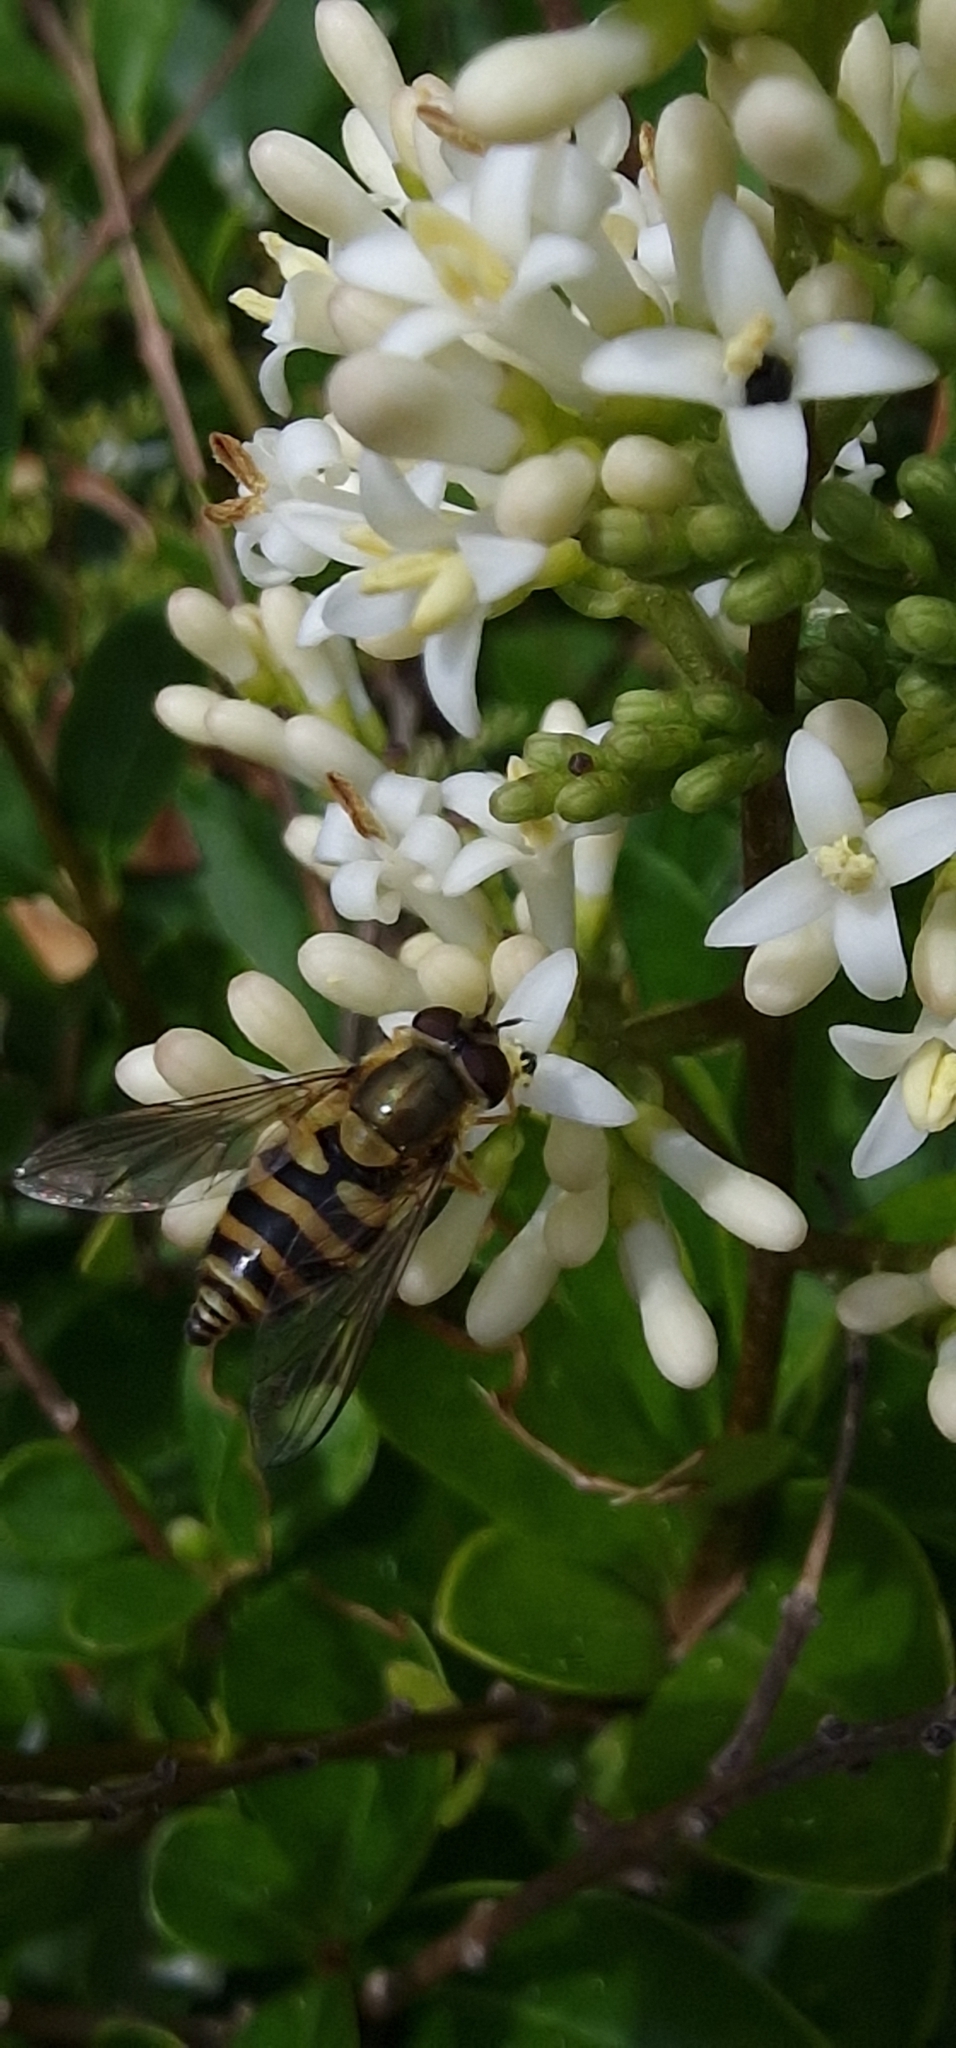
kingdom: Animalia
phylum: Arthropoda
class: Insecta
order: Diptera
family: Syrphidae
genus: Syrphus
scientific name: Syrphus
